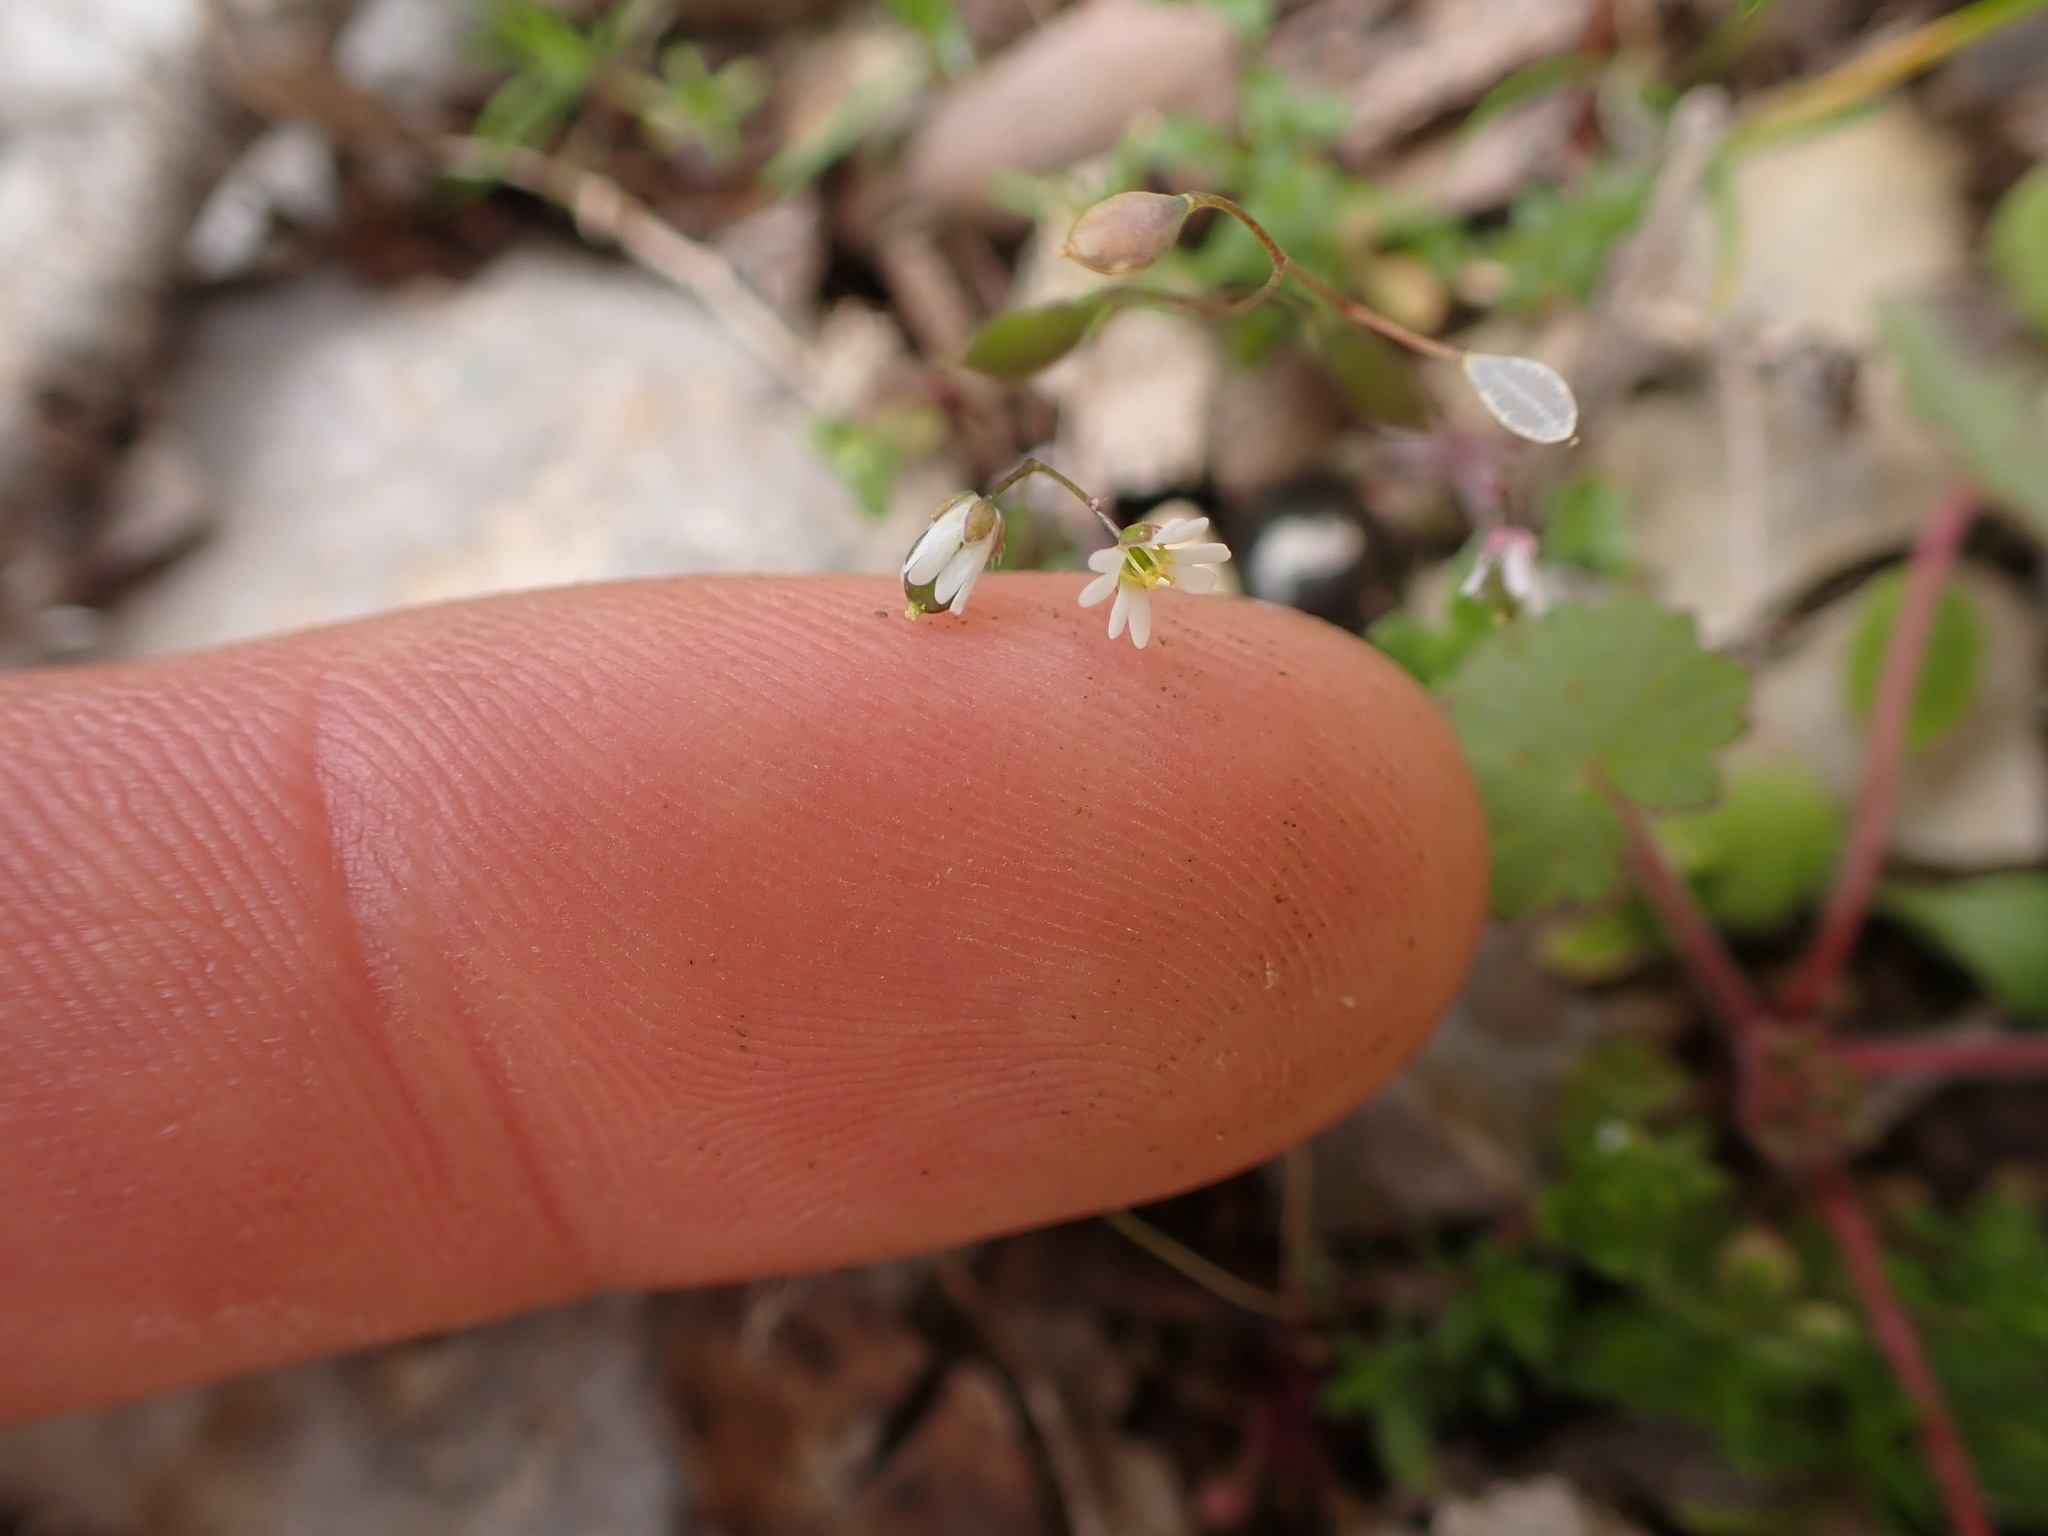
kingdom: Plantae
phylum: Tracheophyta
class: Magnoliopsida
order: Brassicales
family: Brassicaceae
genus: Draba
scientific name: Draba verna
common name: Spring draba
